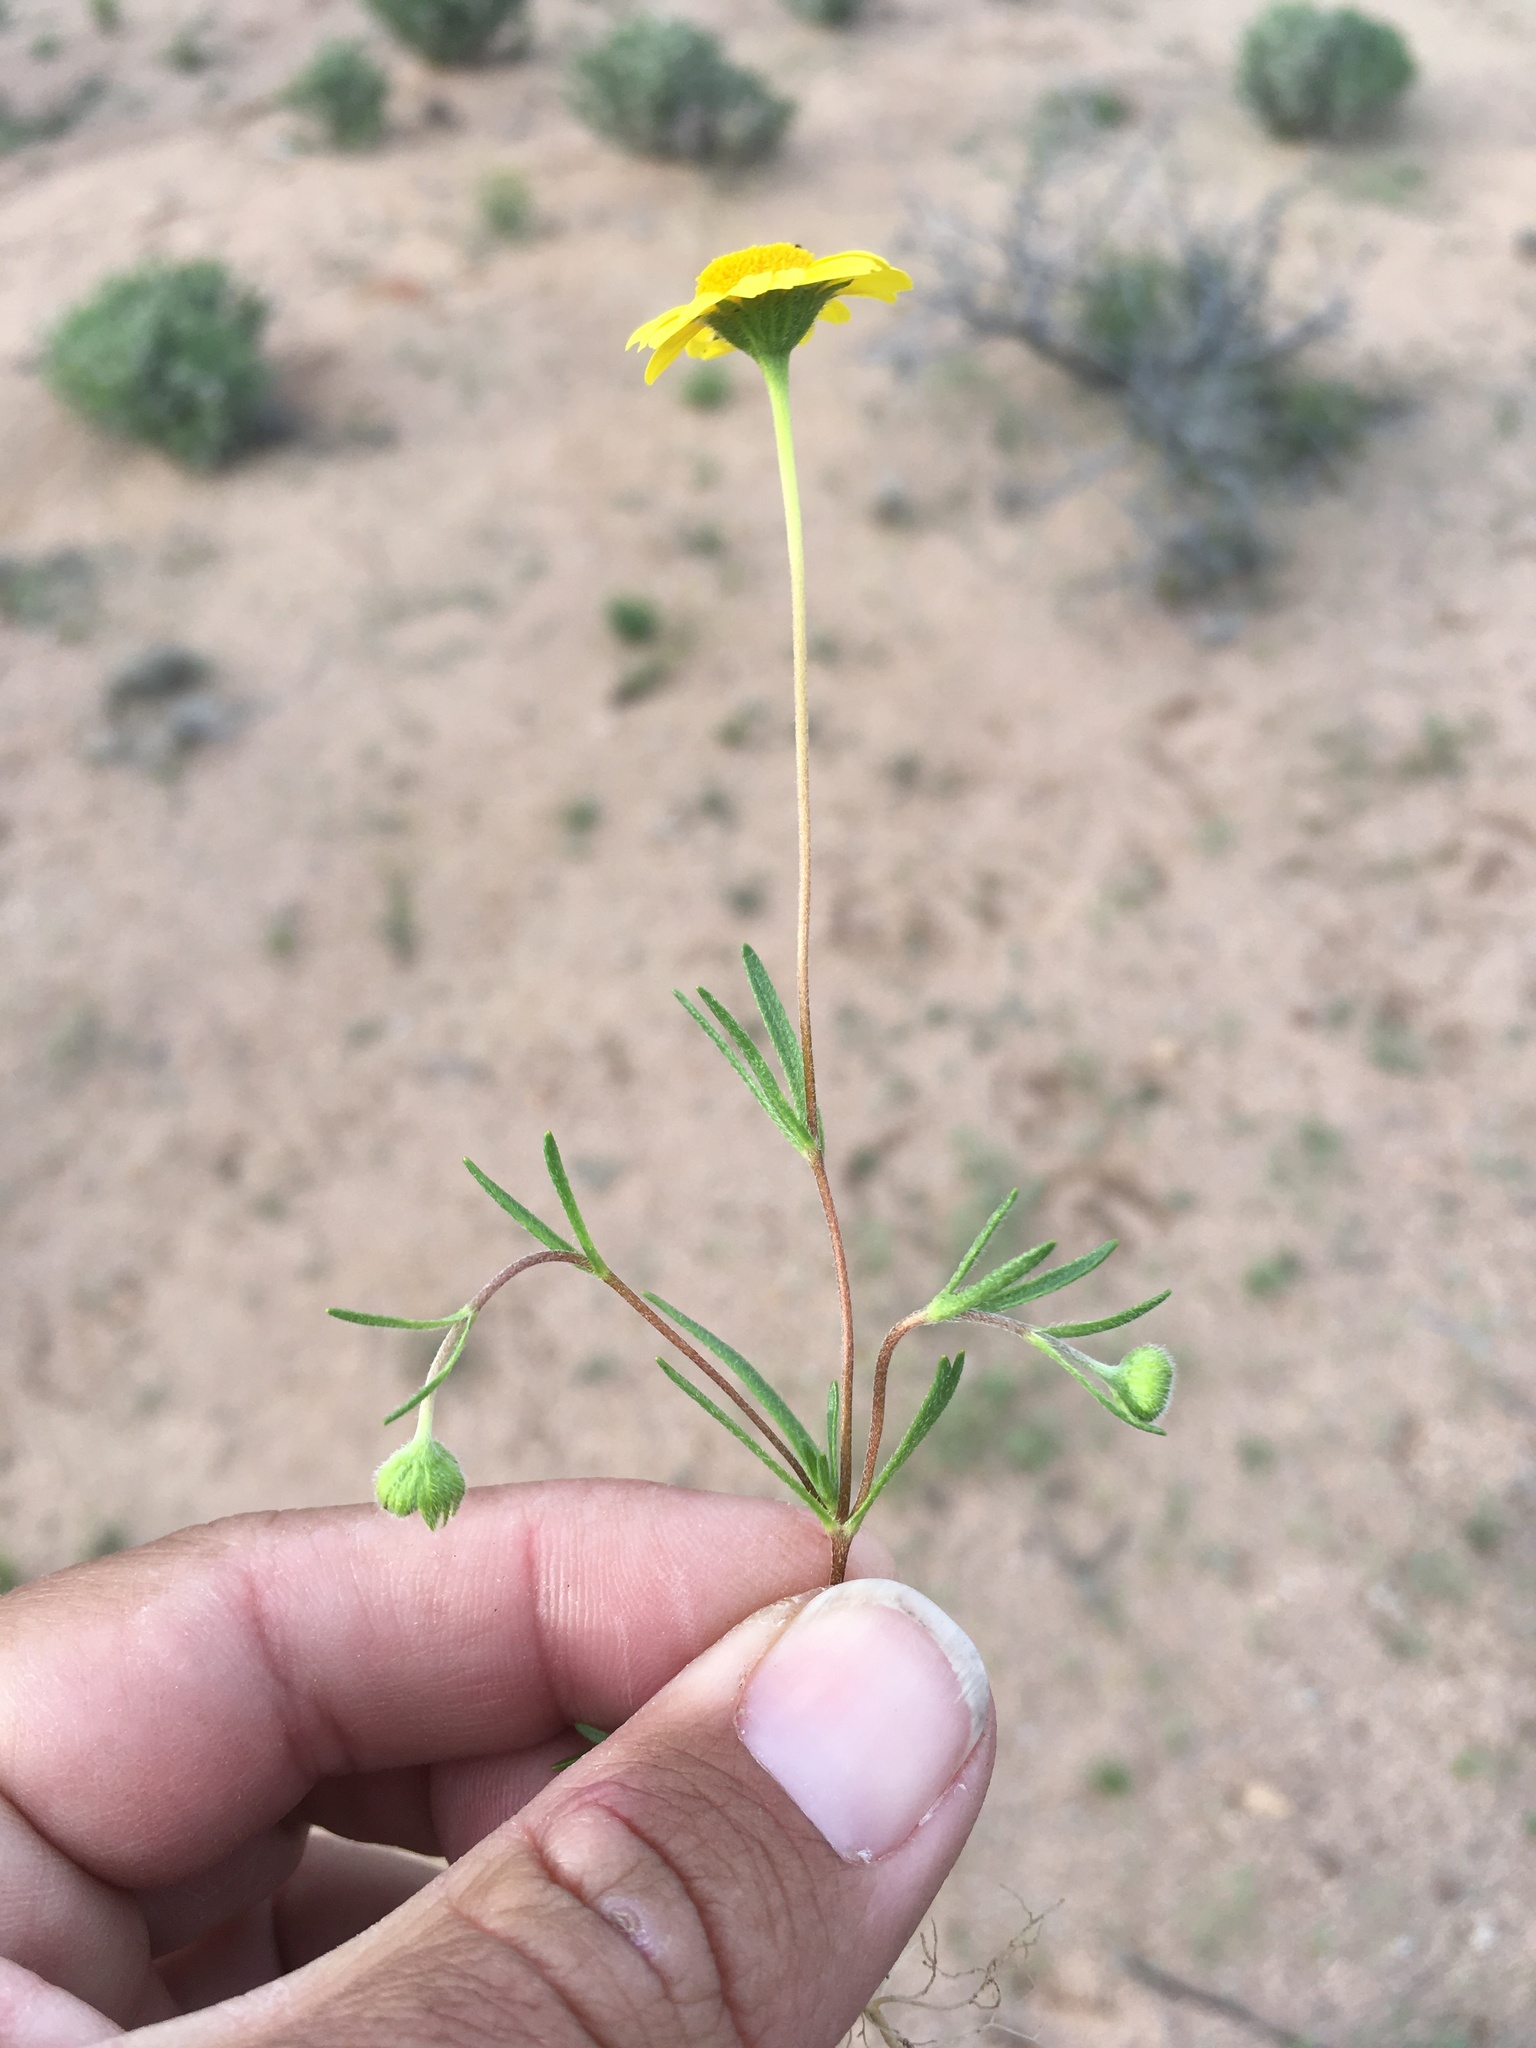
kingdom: Plantae
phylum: Tracheophyta
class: Magnoliopsida
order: Asterales
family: Asteraceae
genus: Lasthenia
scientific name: Lasthenia gracilis
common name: Common goldfields
